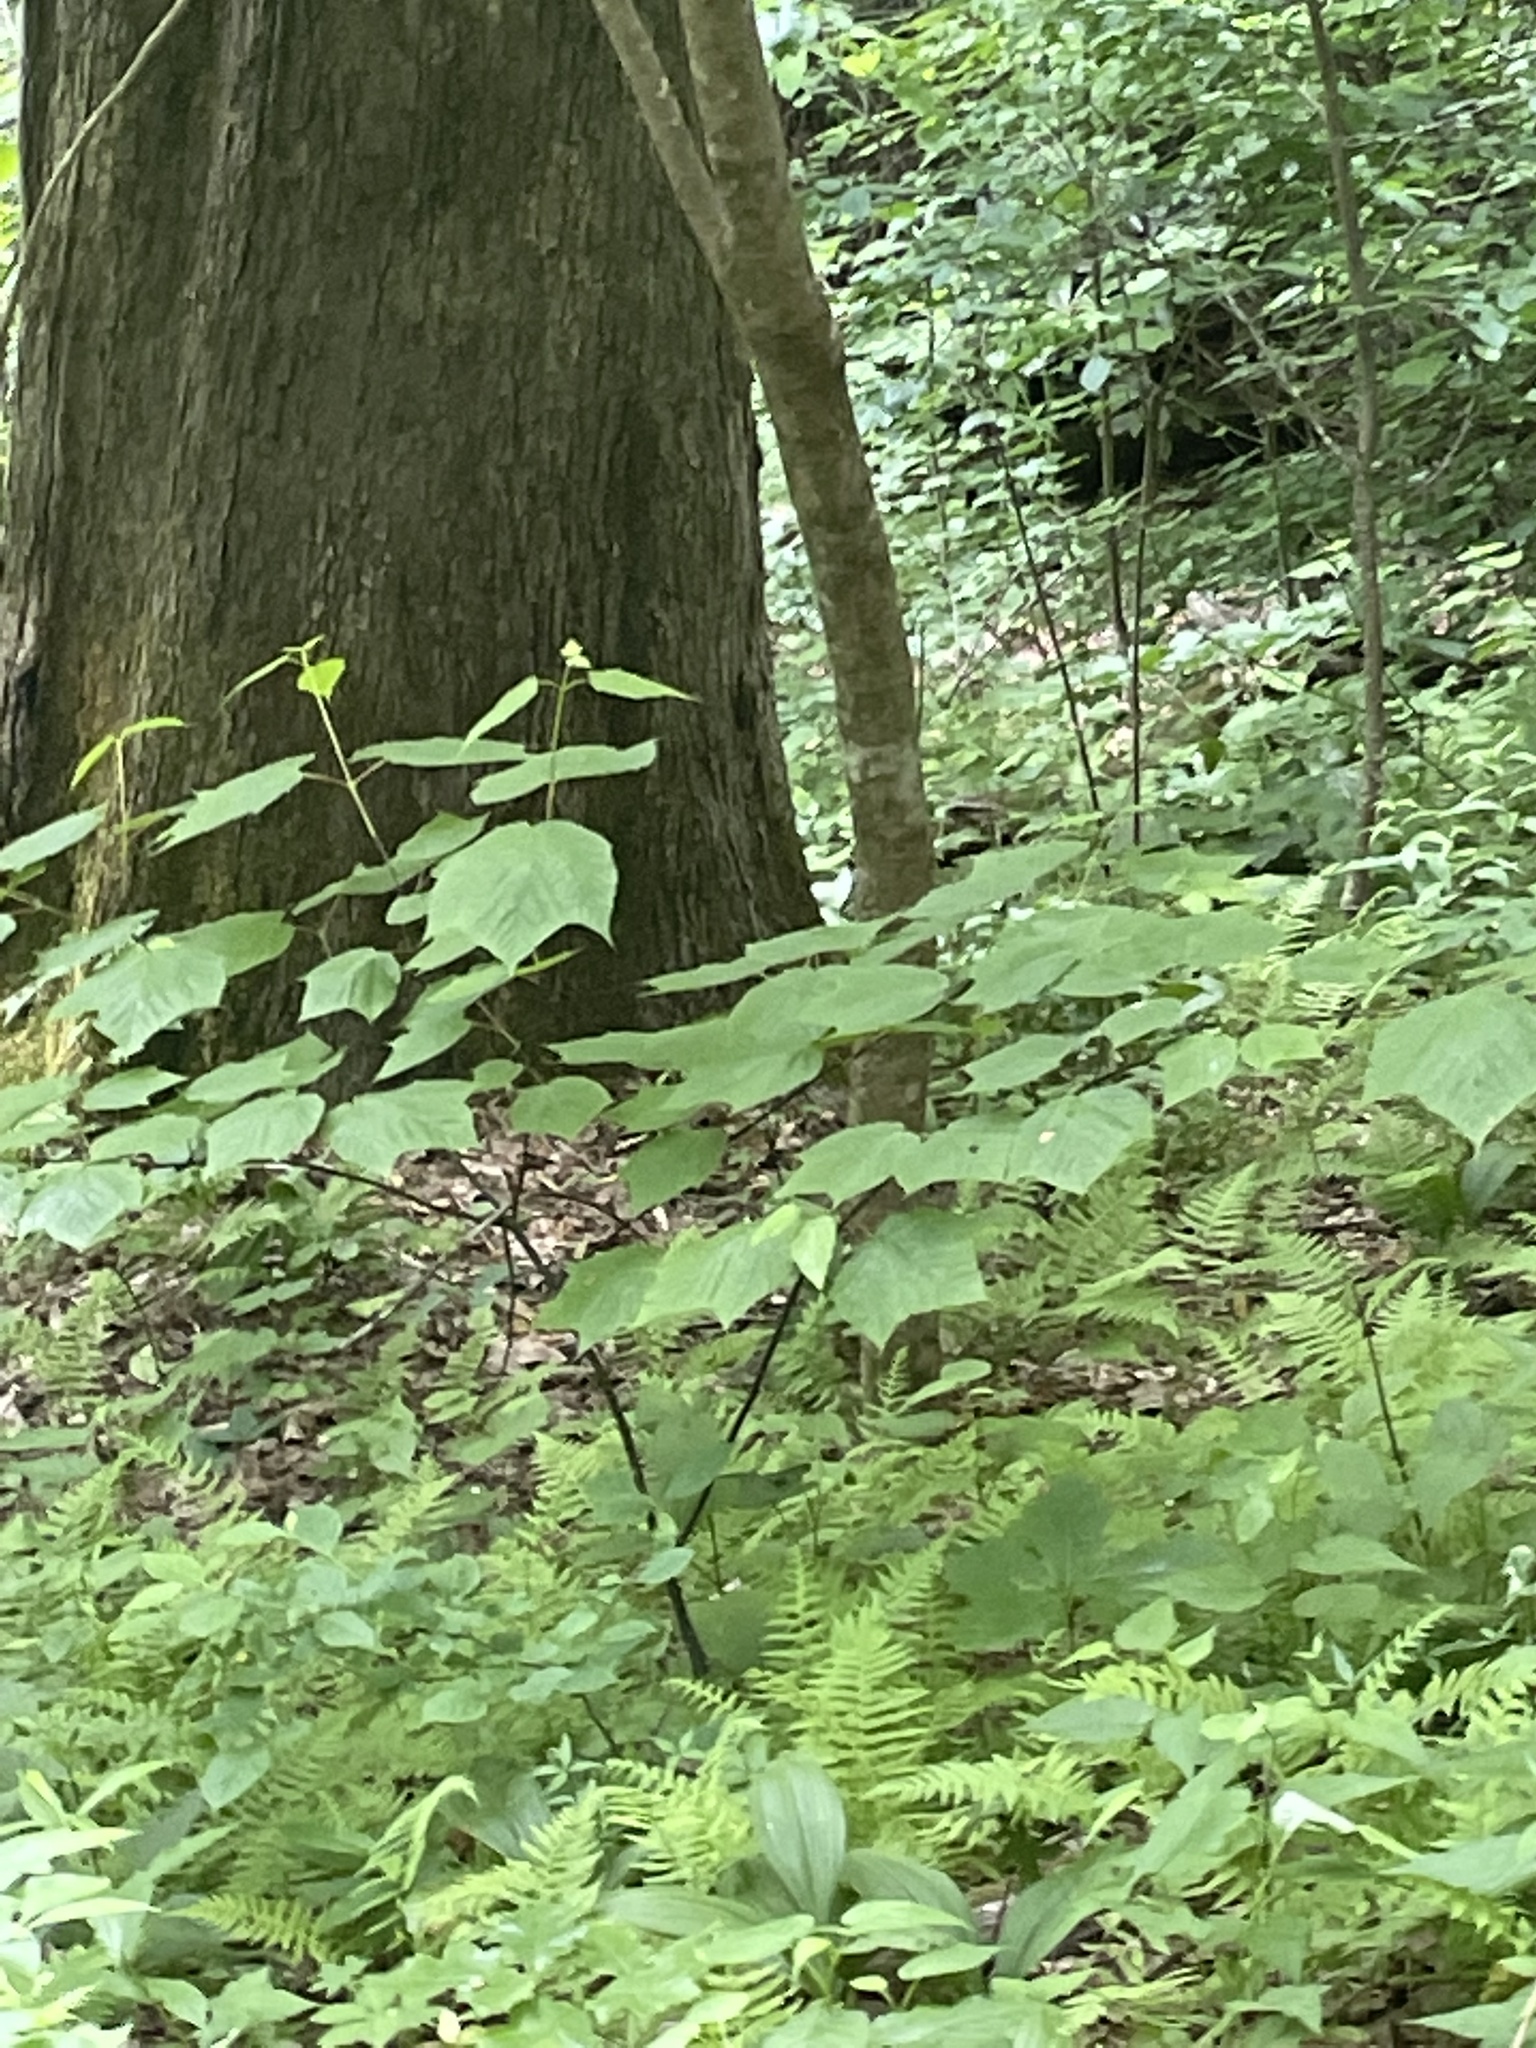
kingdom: Plantae
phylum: Tracheophyta
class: Magnoliopsida
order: Sapindales
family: Sapindaceae
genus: Acer
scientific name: Acer pensylvanicum
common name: Moosewood
